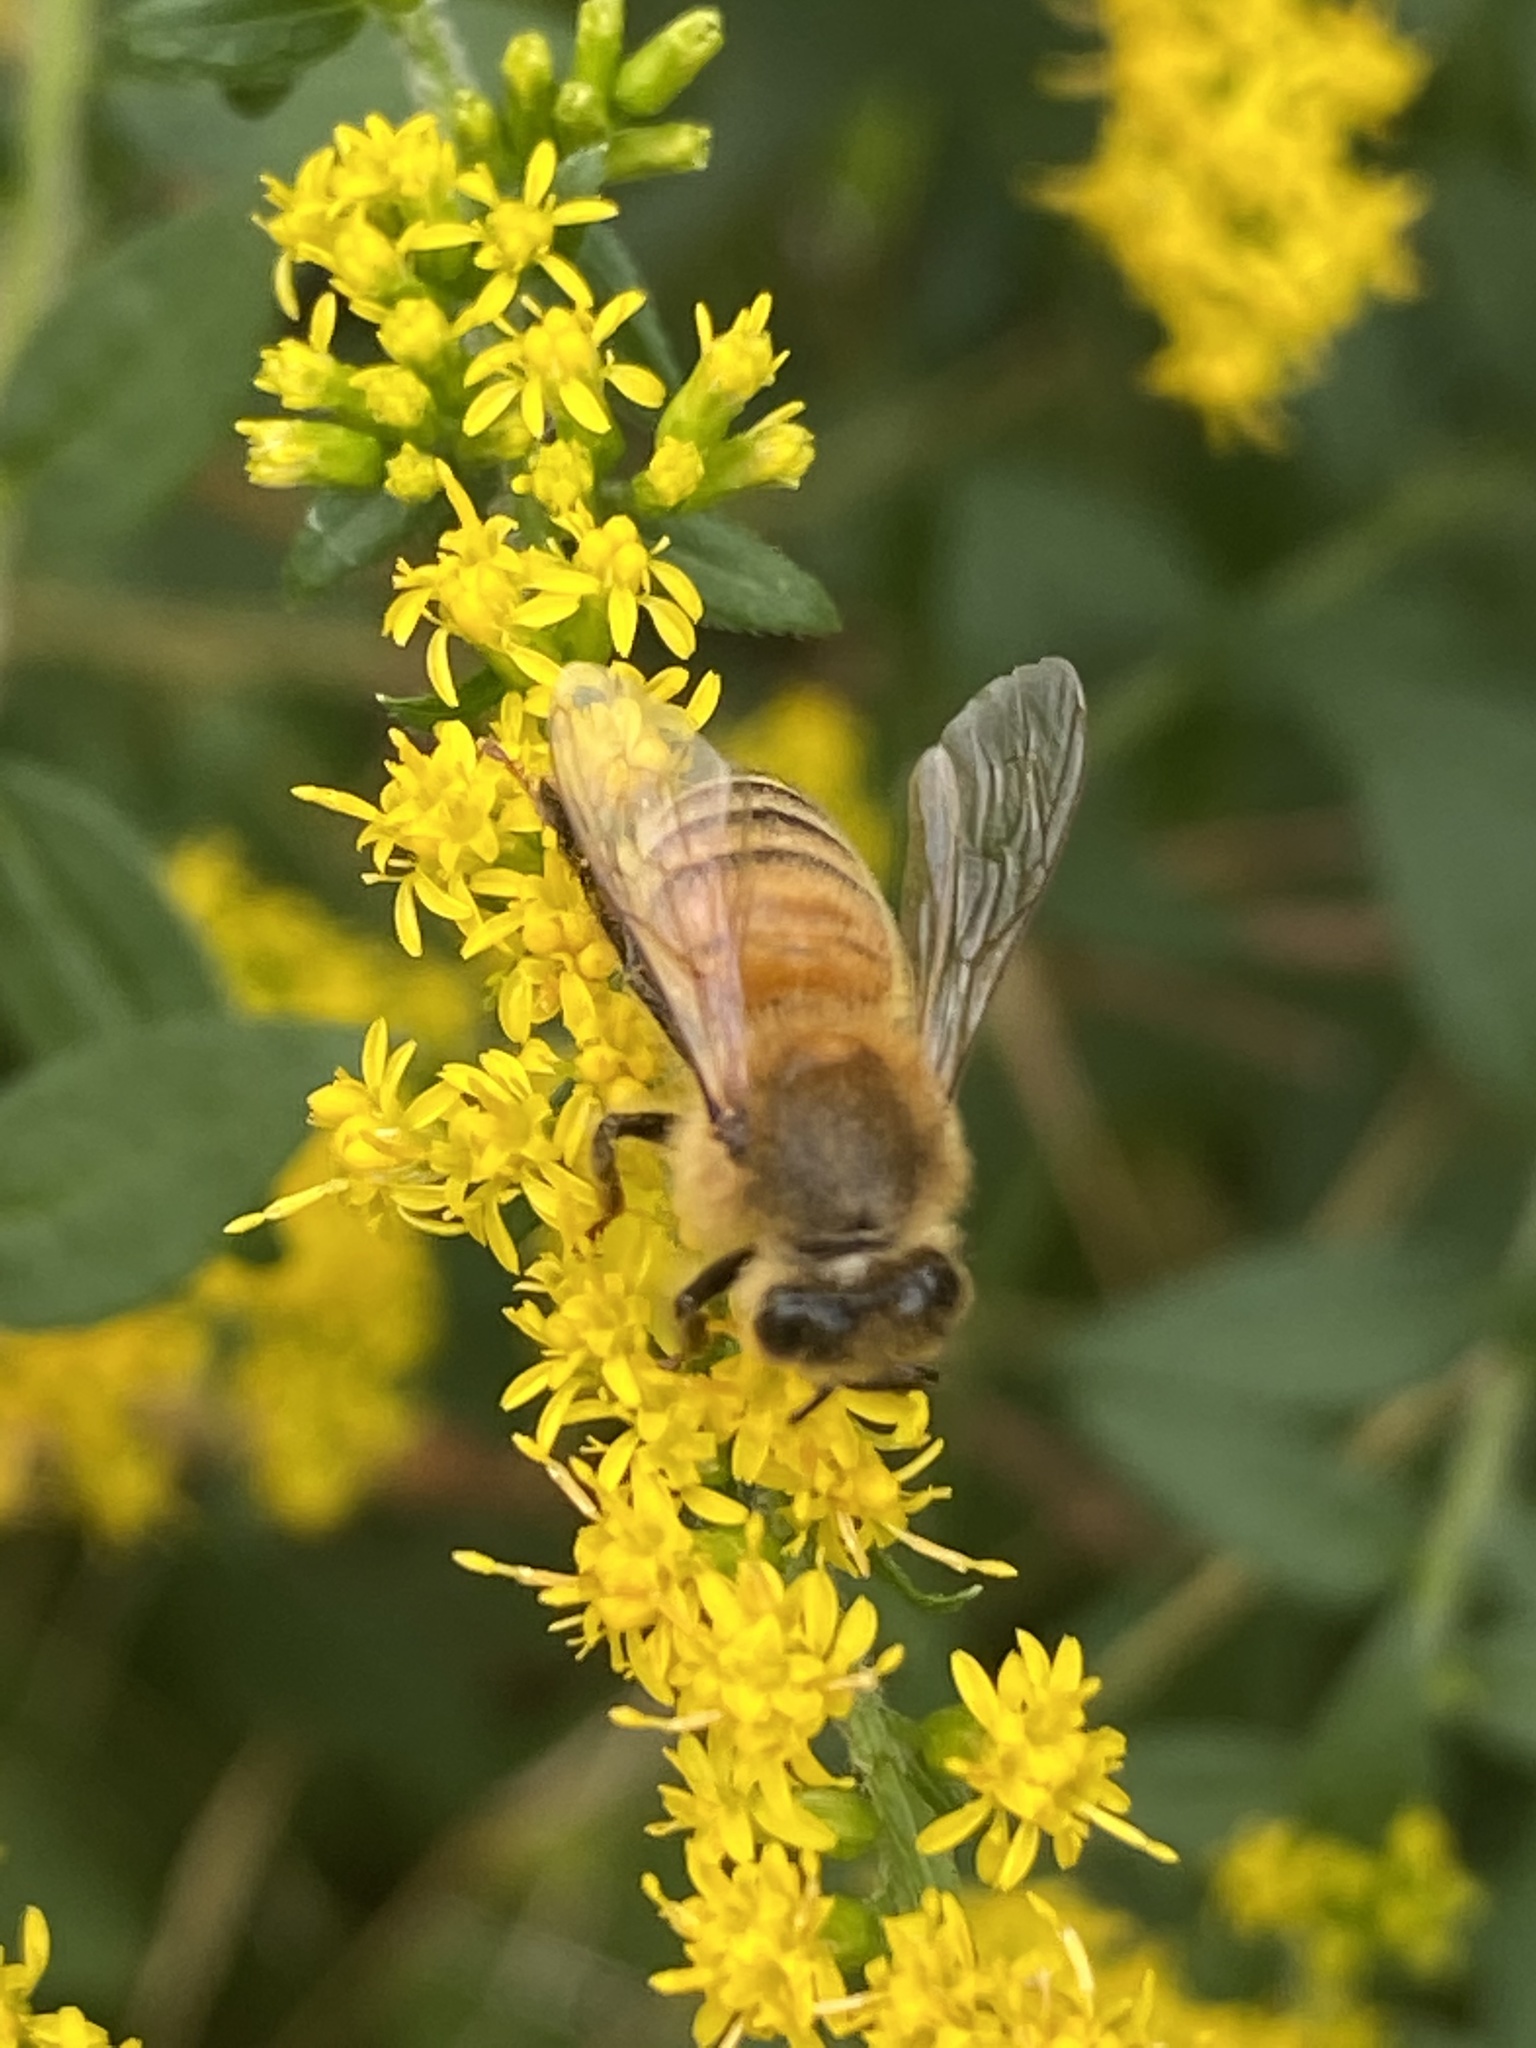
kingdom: Animalia
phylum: Arthropoda
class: Insecta
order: Hymenoptera
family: Apidae
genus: Apis
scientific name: Apis mellifera
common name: Honey bee
